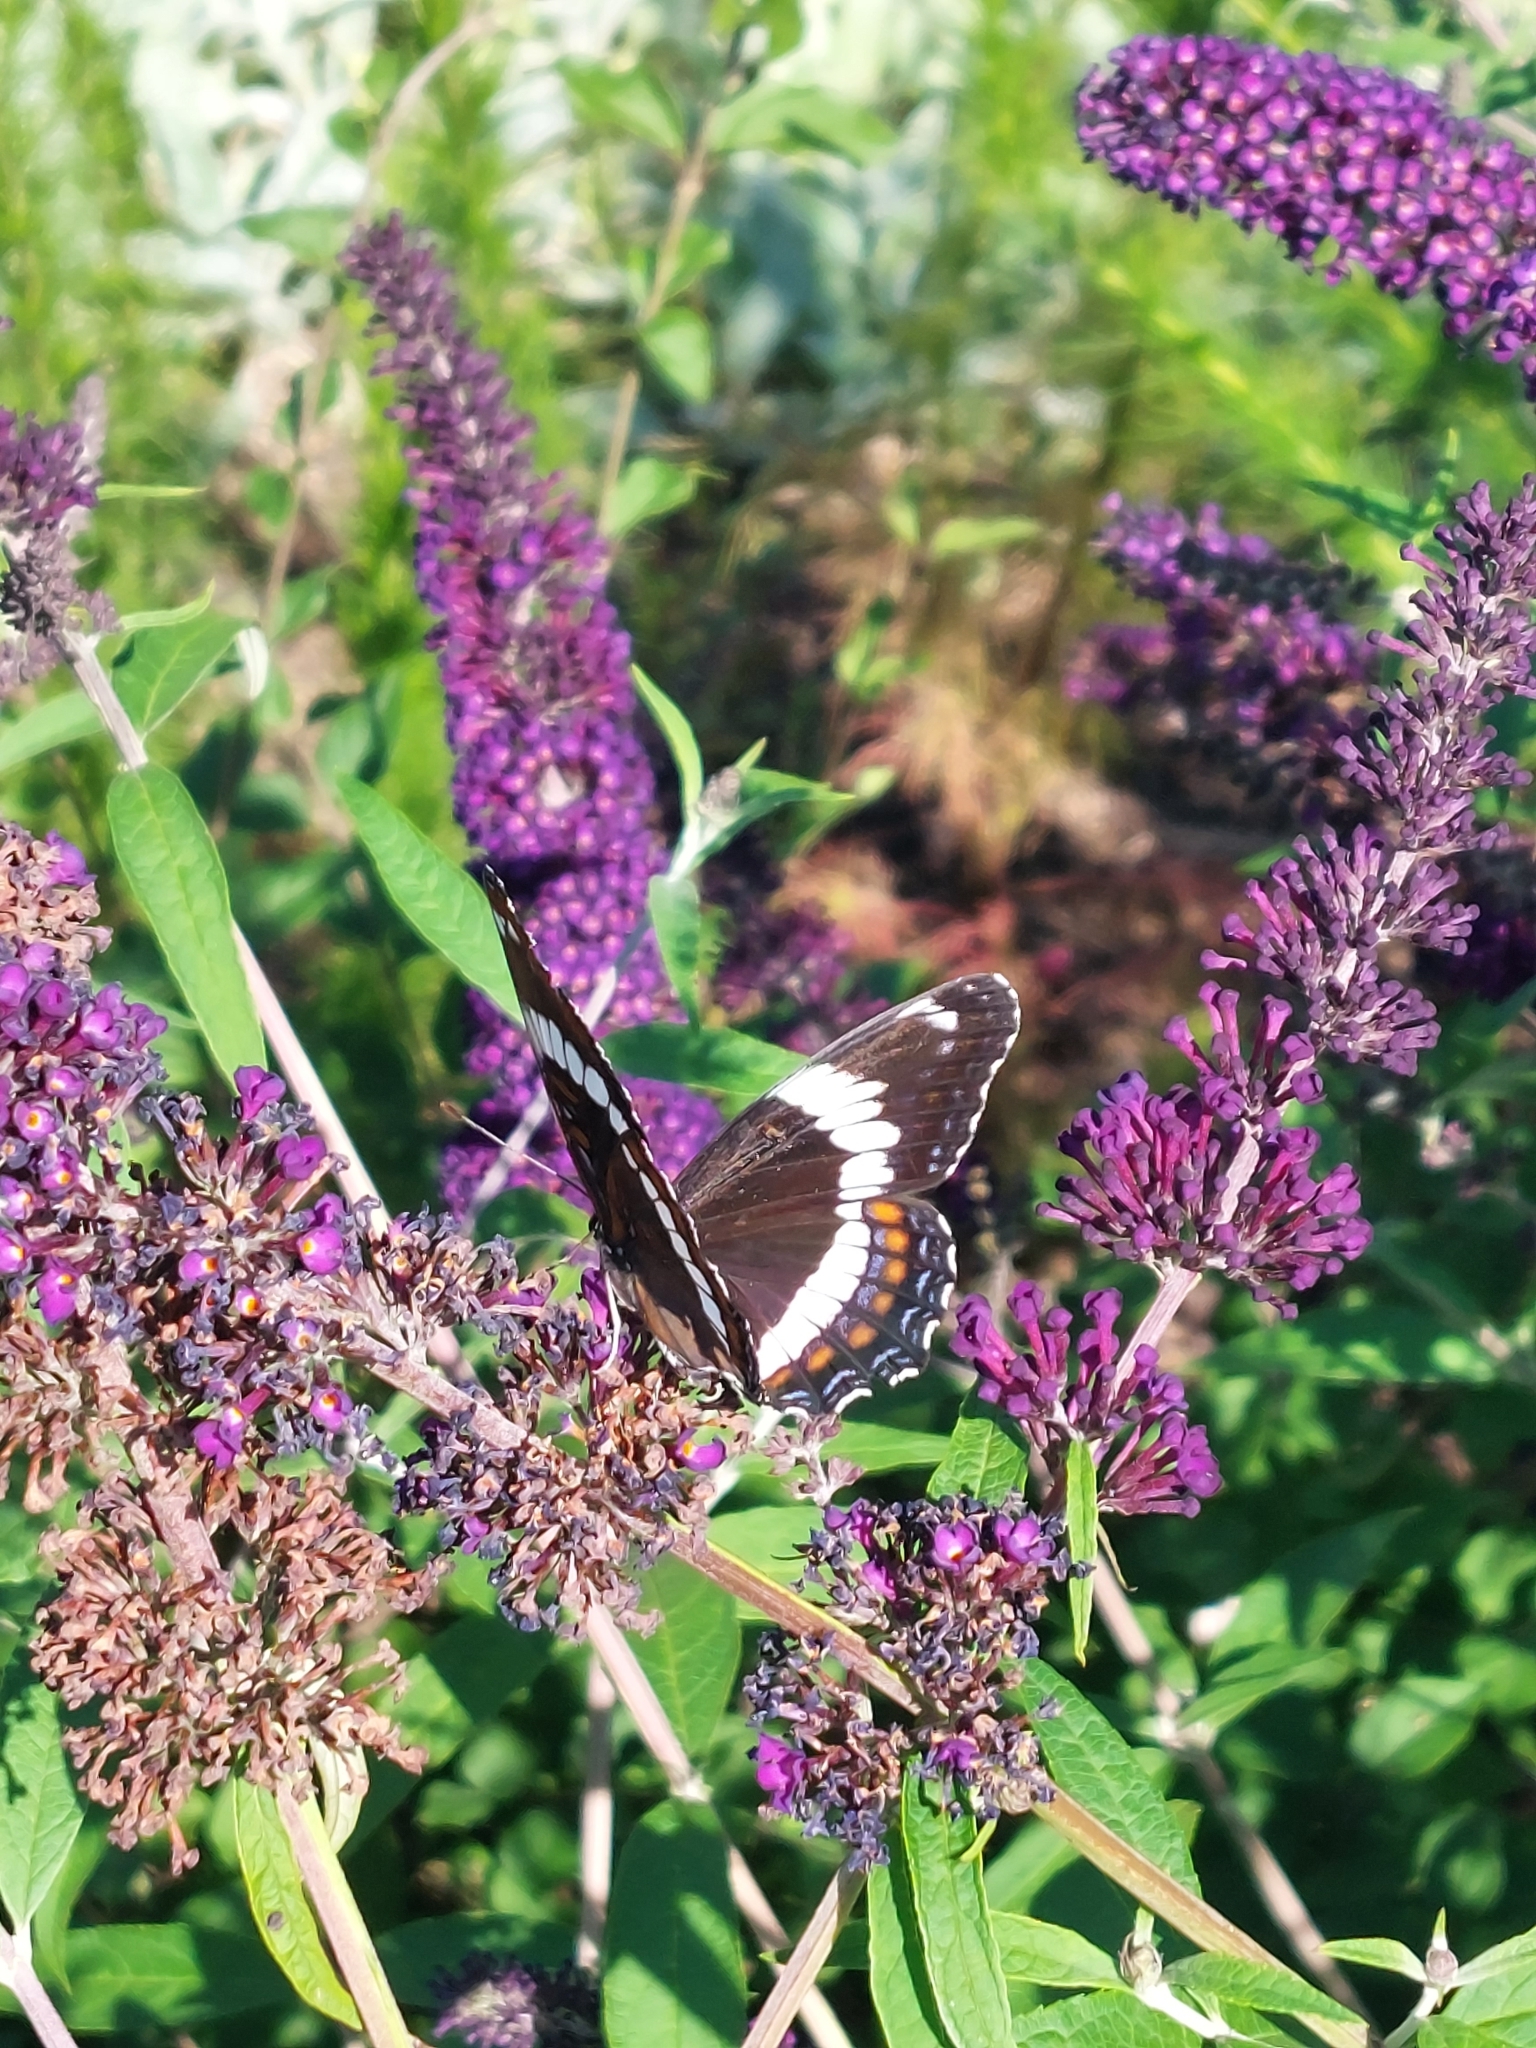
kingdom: Animalia
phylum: Arthropoda
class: Insecta
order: Lepidoptera
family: Nymphalidae
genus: Limenitis
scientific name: Limenitis arthemis
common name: Red-spotted admiral
